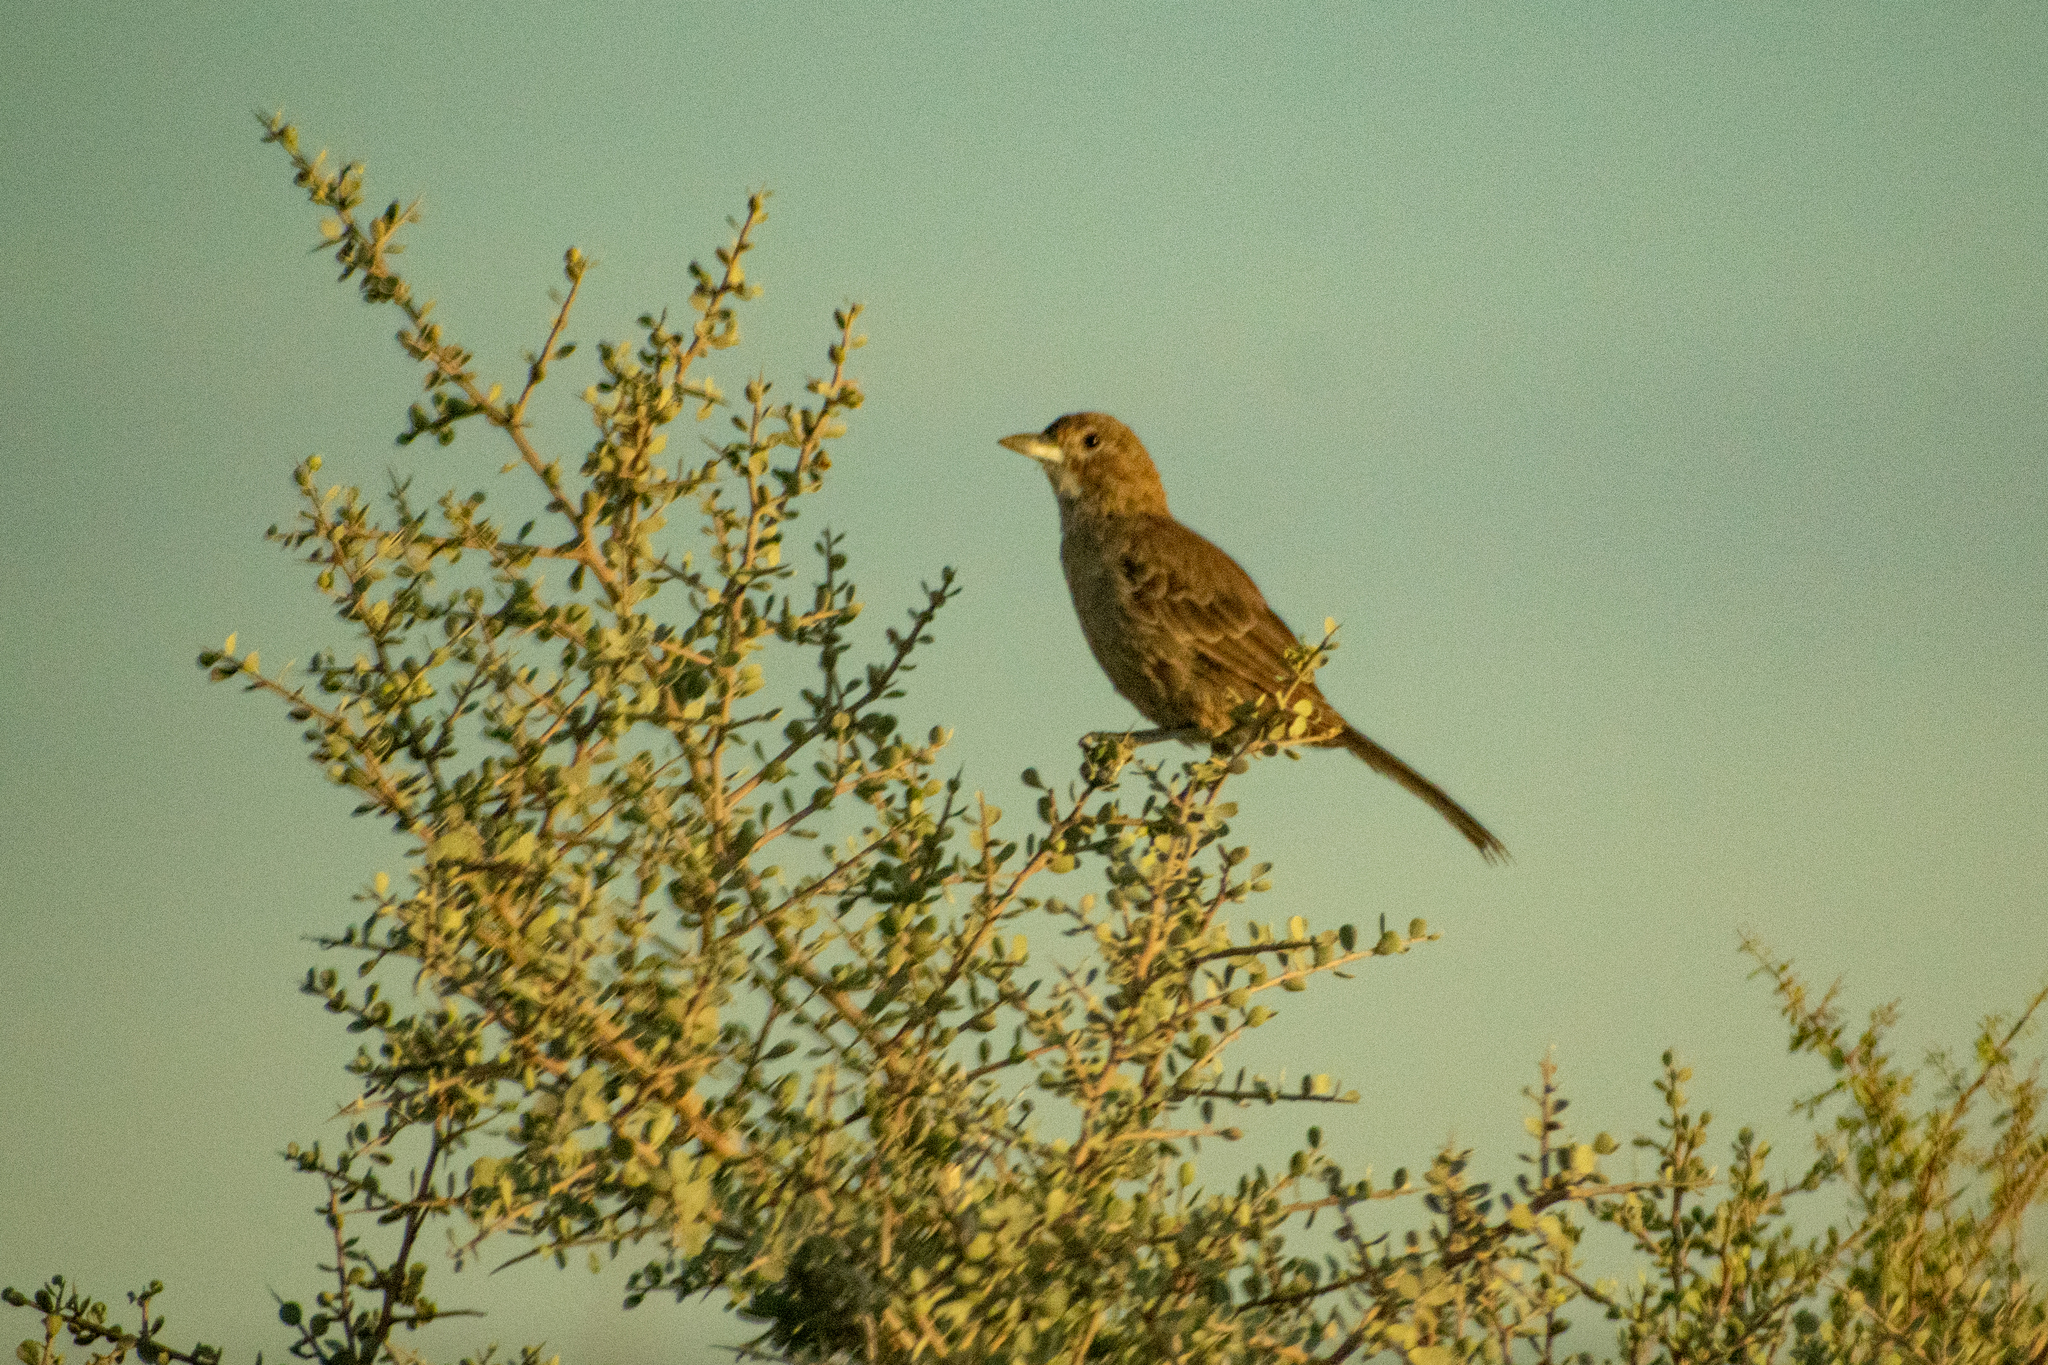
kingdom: Animalia
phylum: Chordata
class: Aves
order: Passeriformes
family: Furnariidae
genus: Pseudoseisura
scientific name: Pseudoseisura gutturalis
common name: White-throated cacholote
